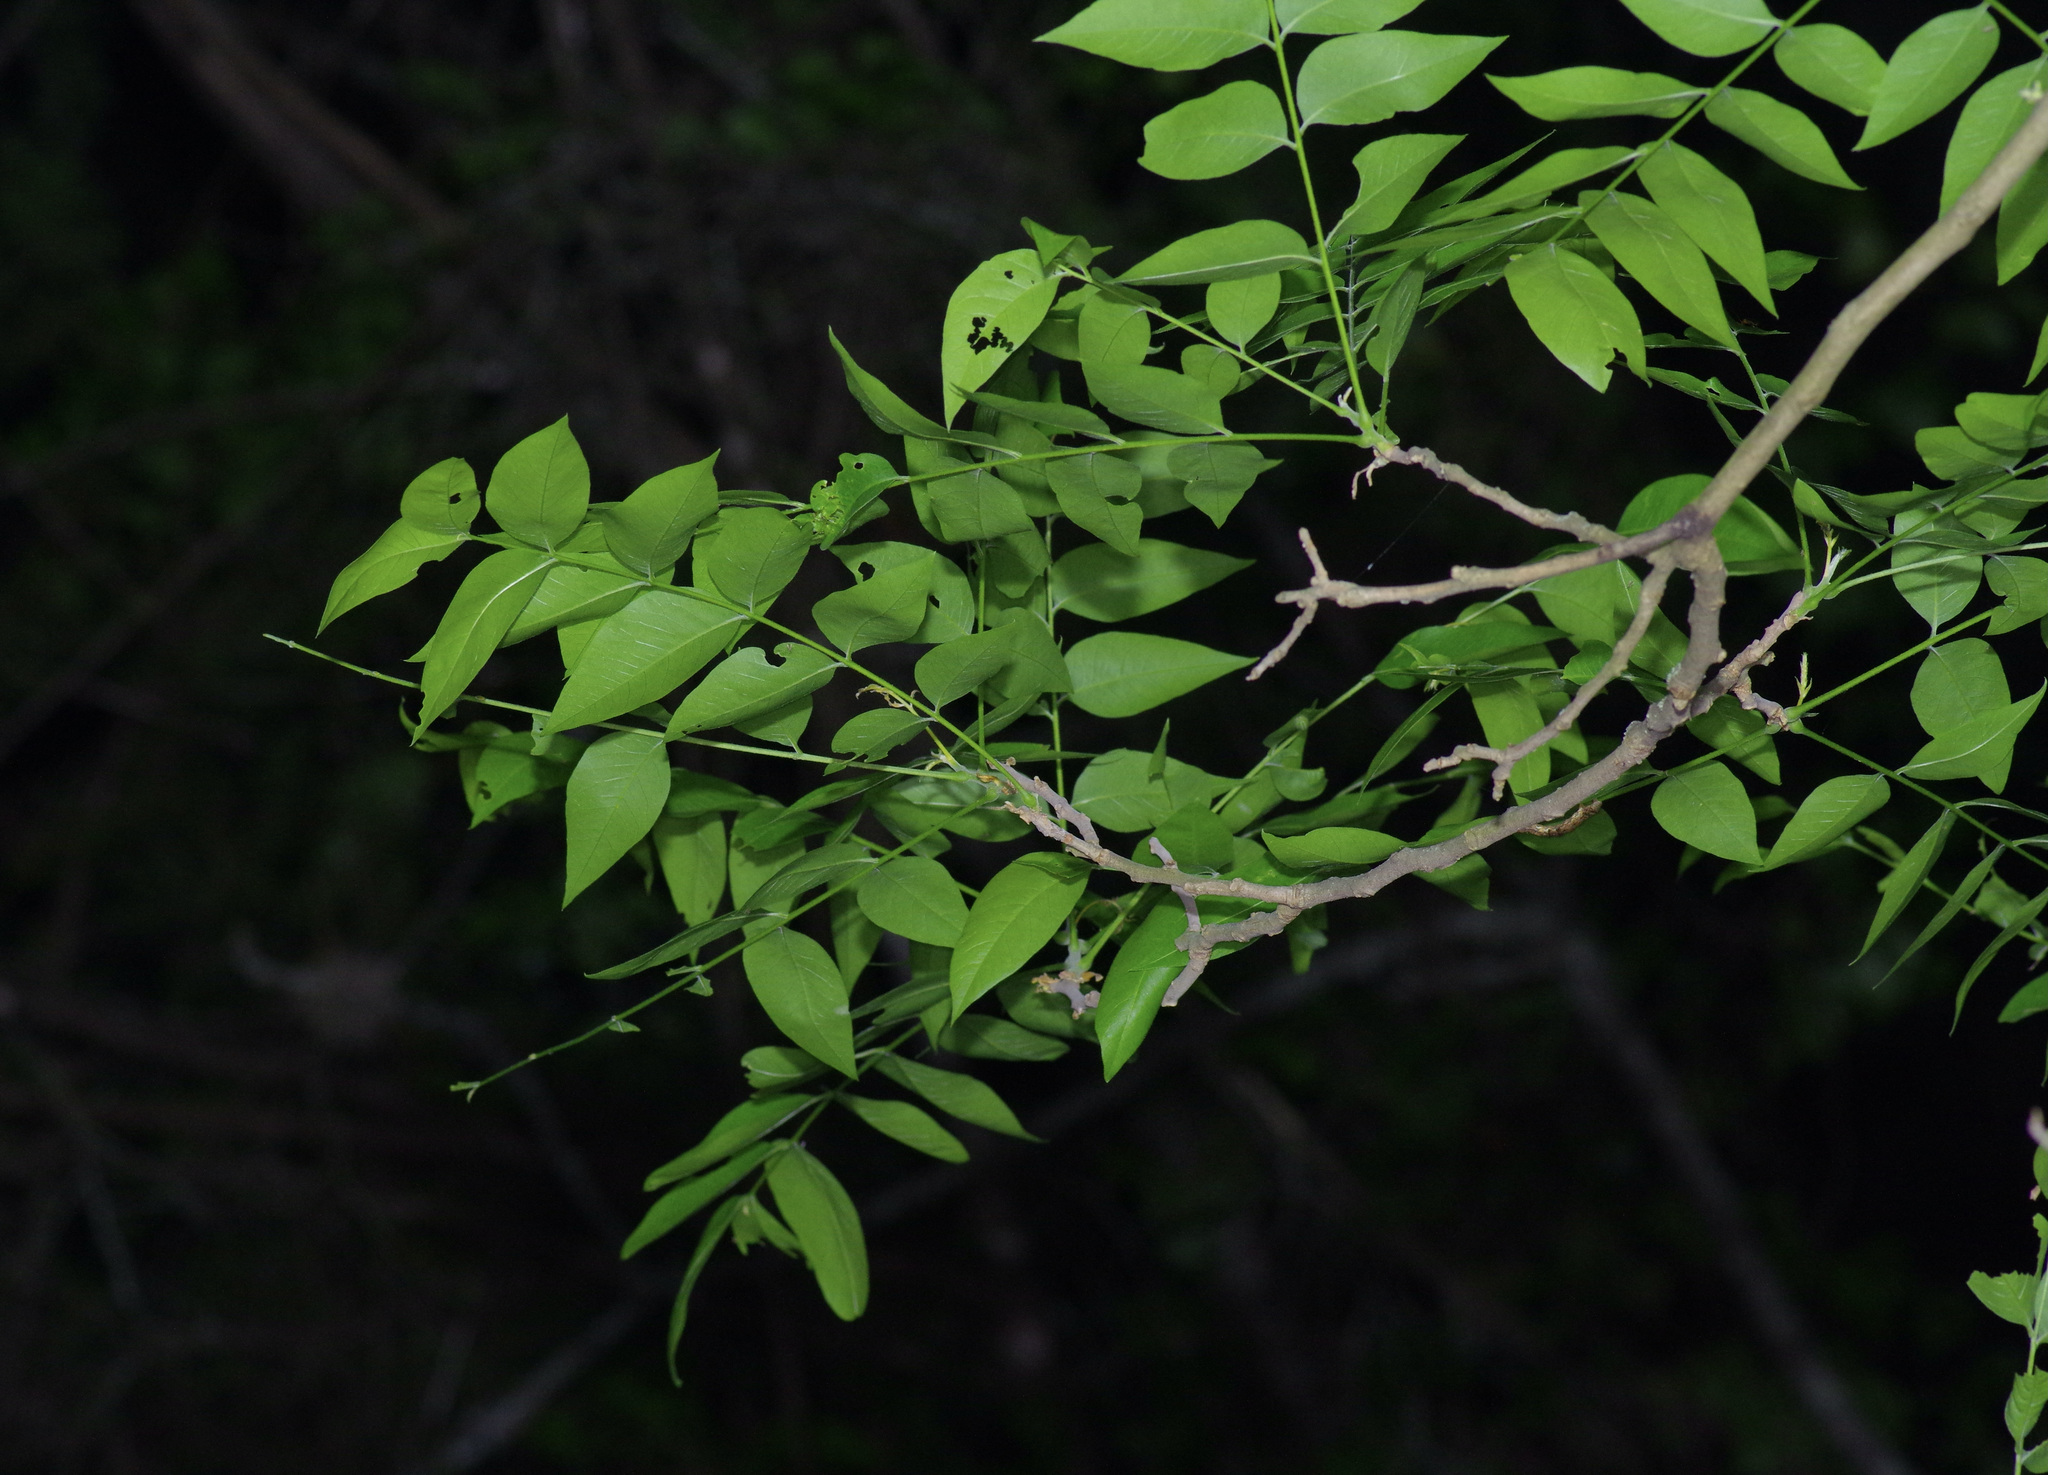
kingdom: Plantae
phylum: Tracheophyta
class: Magnoliopsida
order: Sapindales
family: Sapindaceae
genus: Sapindus
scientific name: Sapindus drummondii
